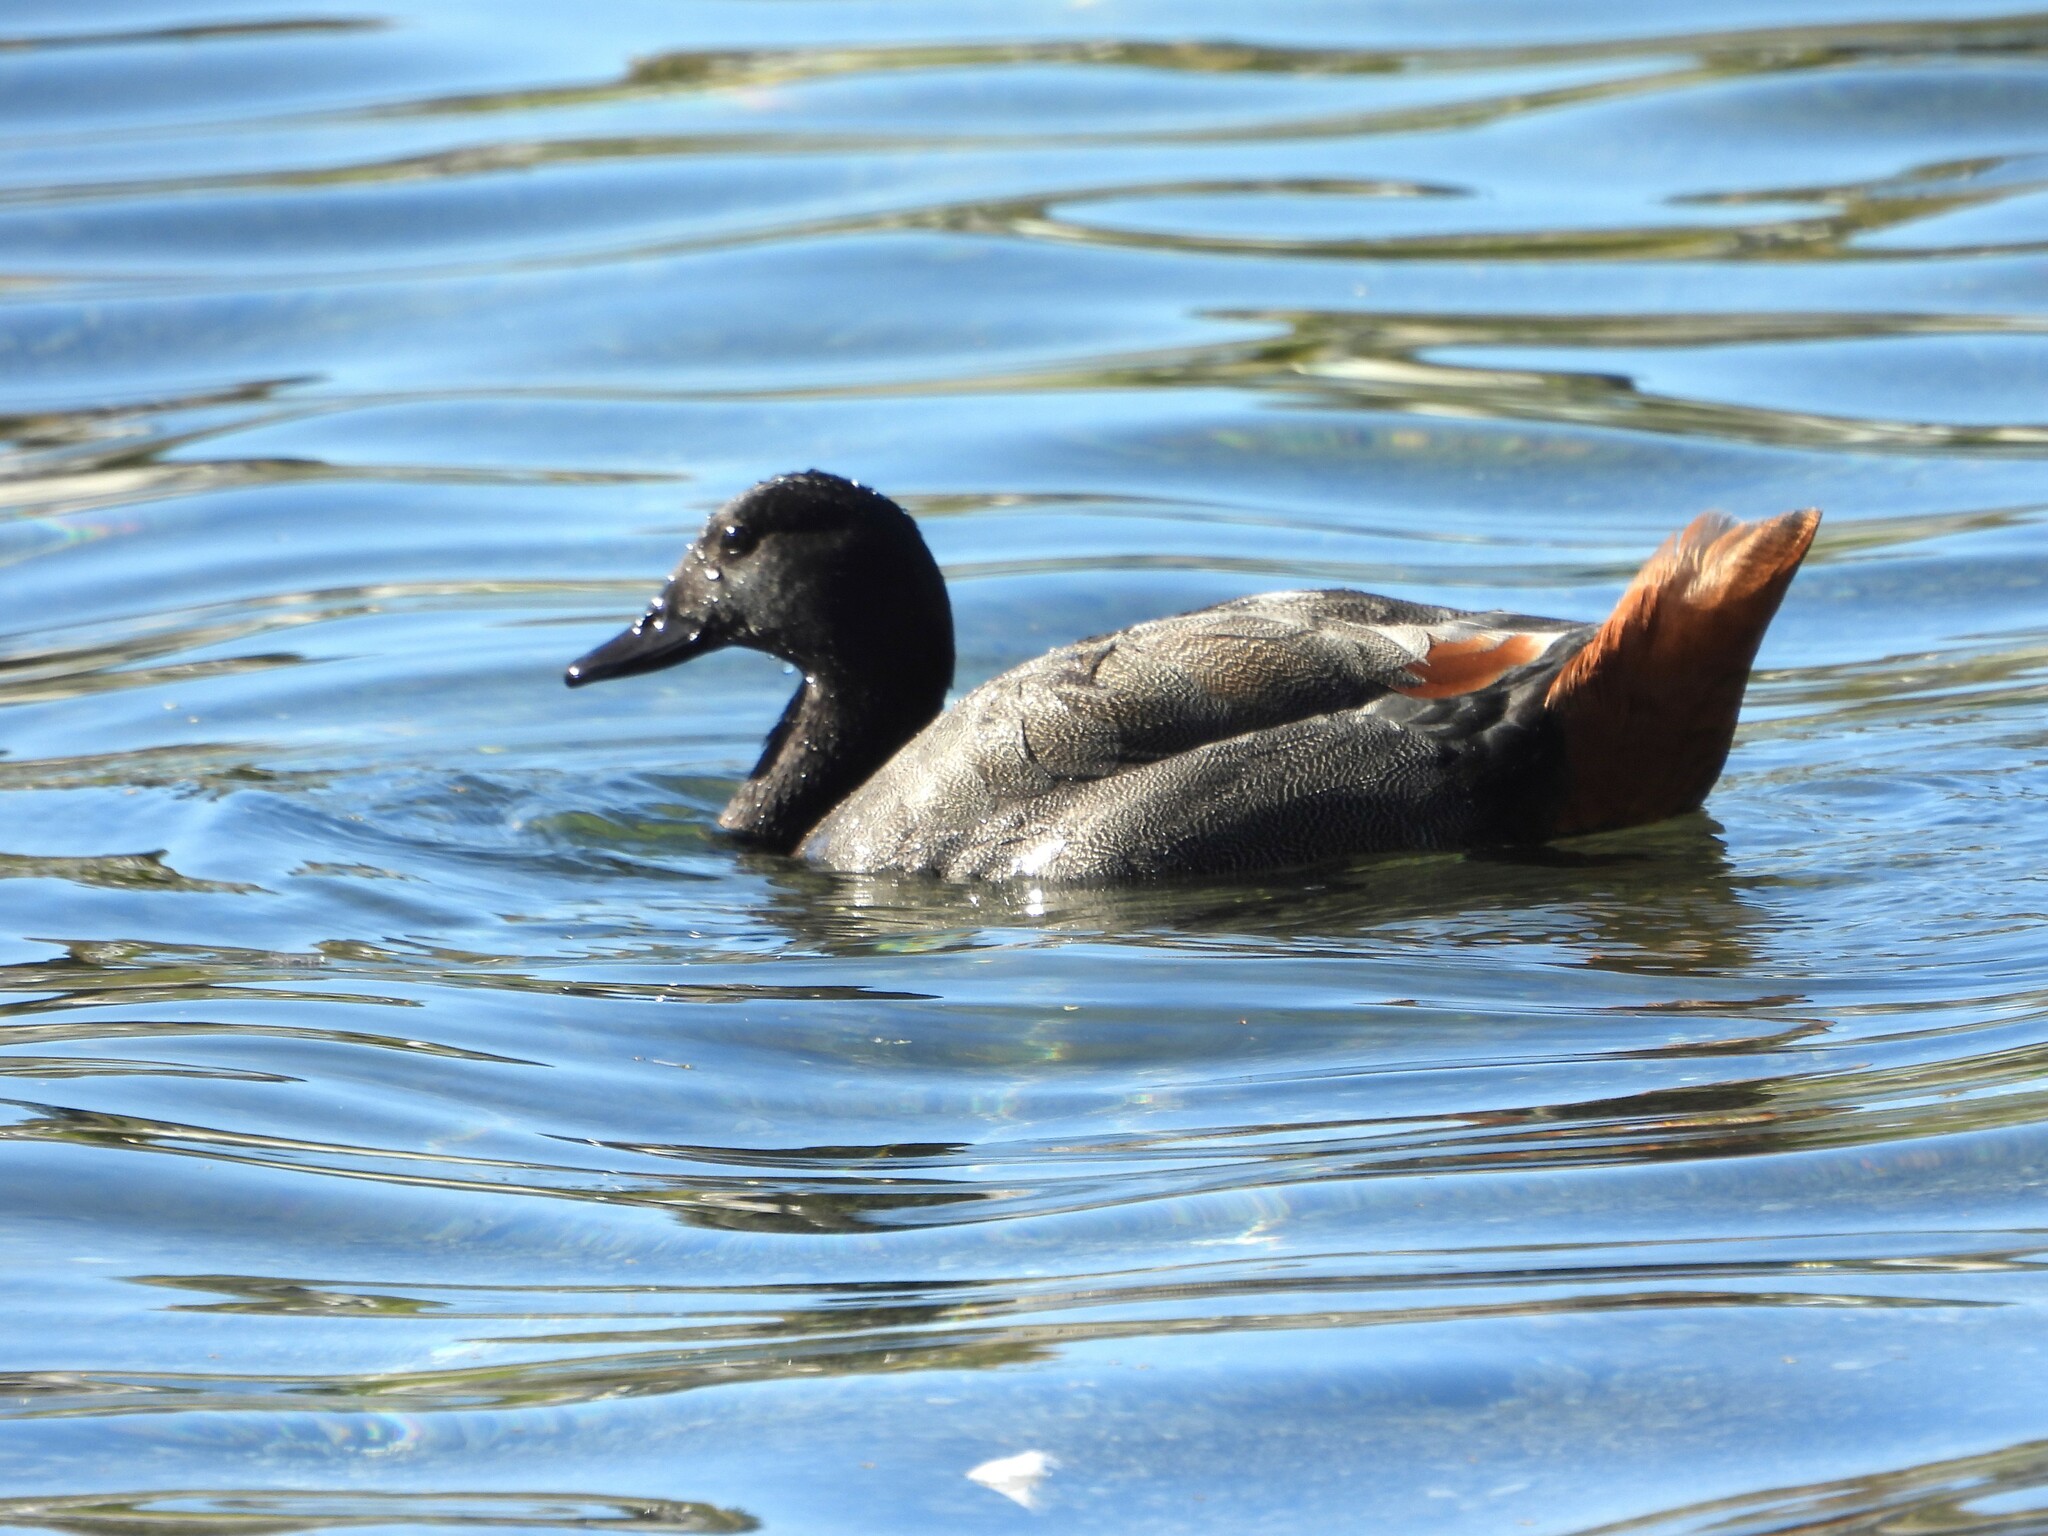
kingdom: Animalia
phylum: Chordata
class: Aves
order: Anseriformes
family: Anatidae
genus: Tadorna
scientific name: Tadorna variegata
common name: Paradise shelduck
